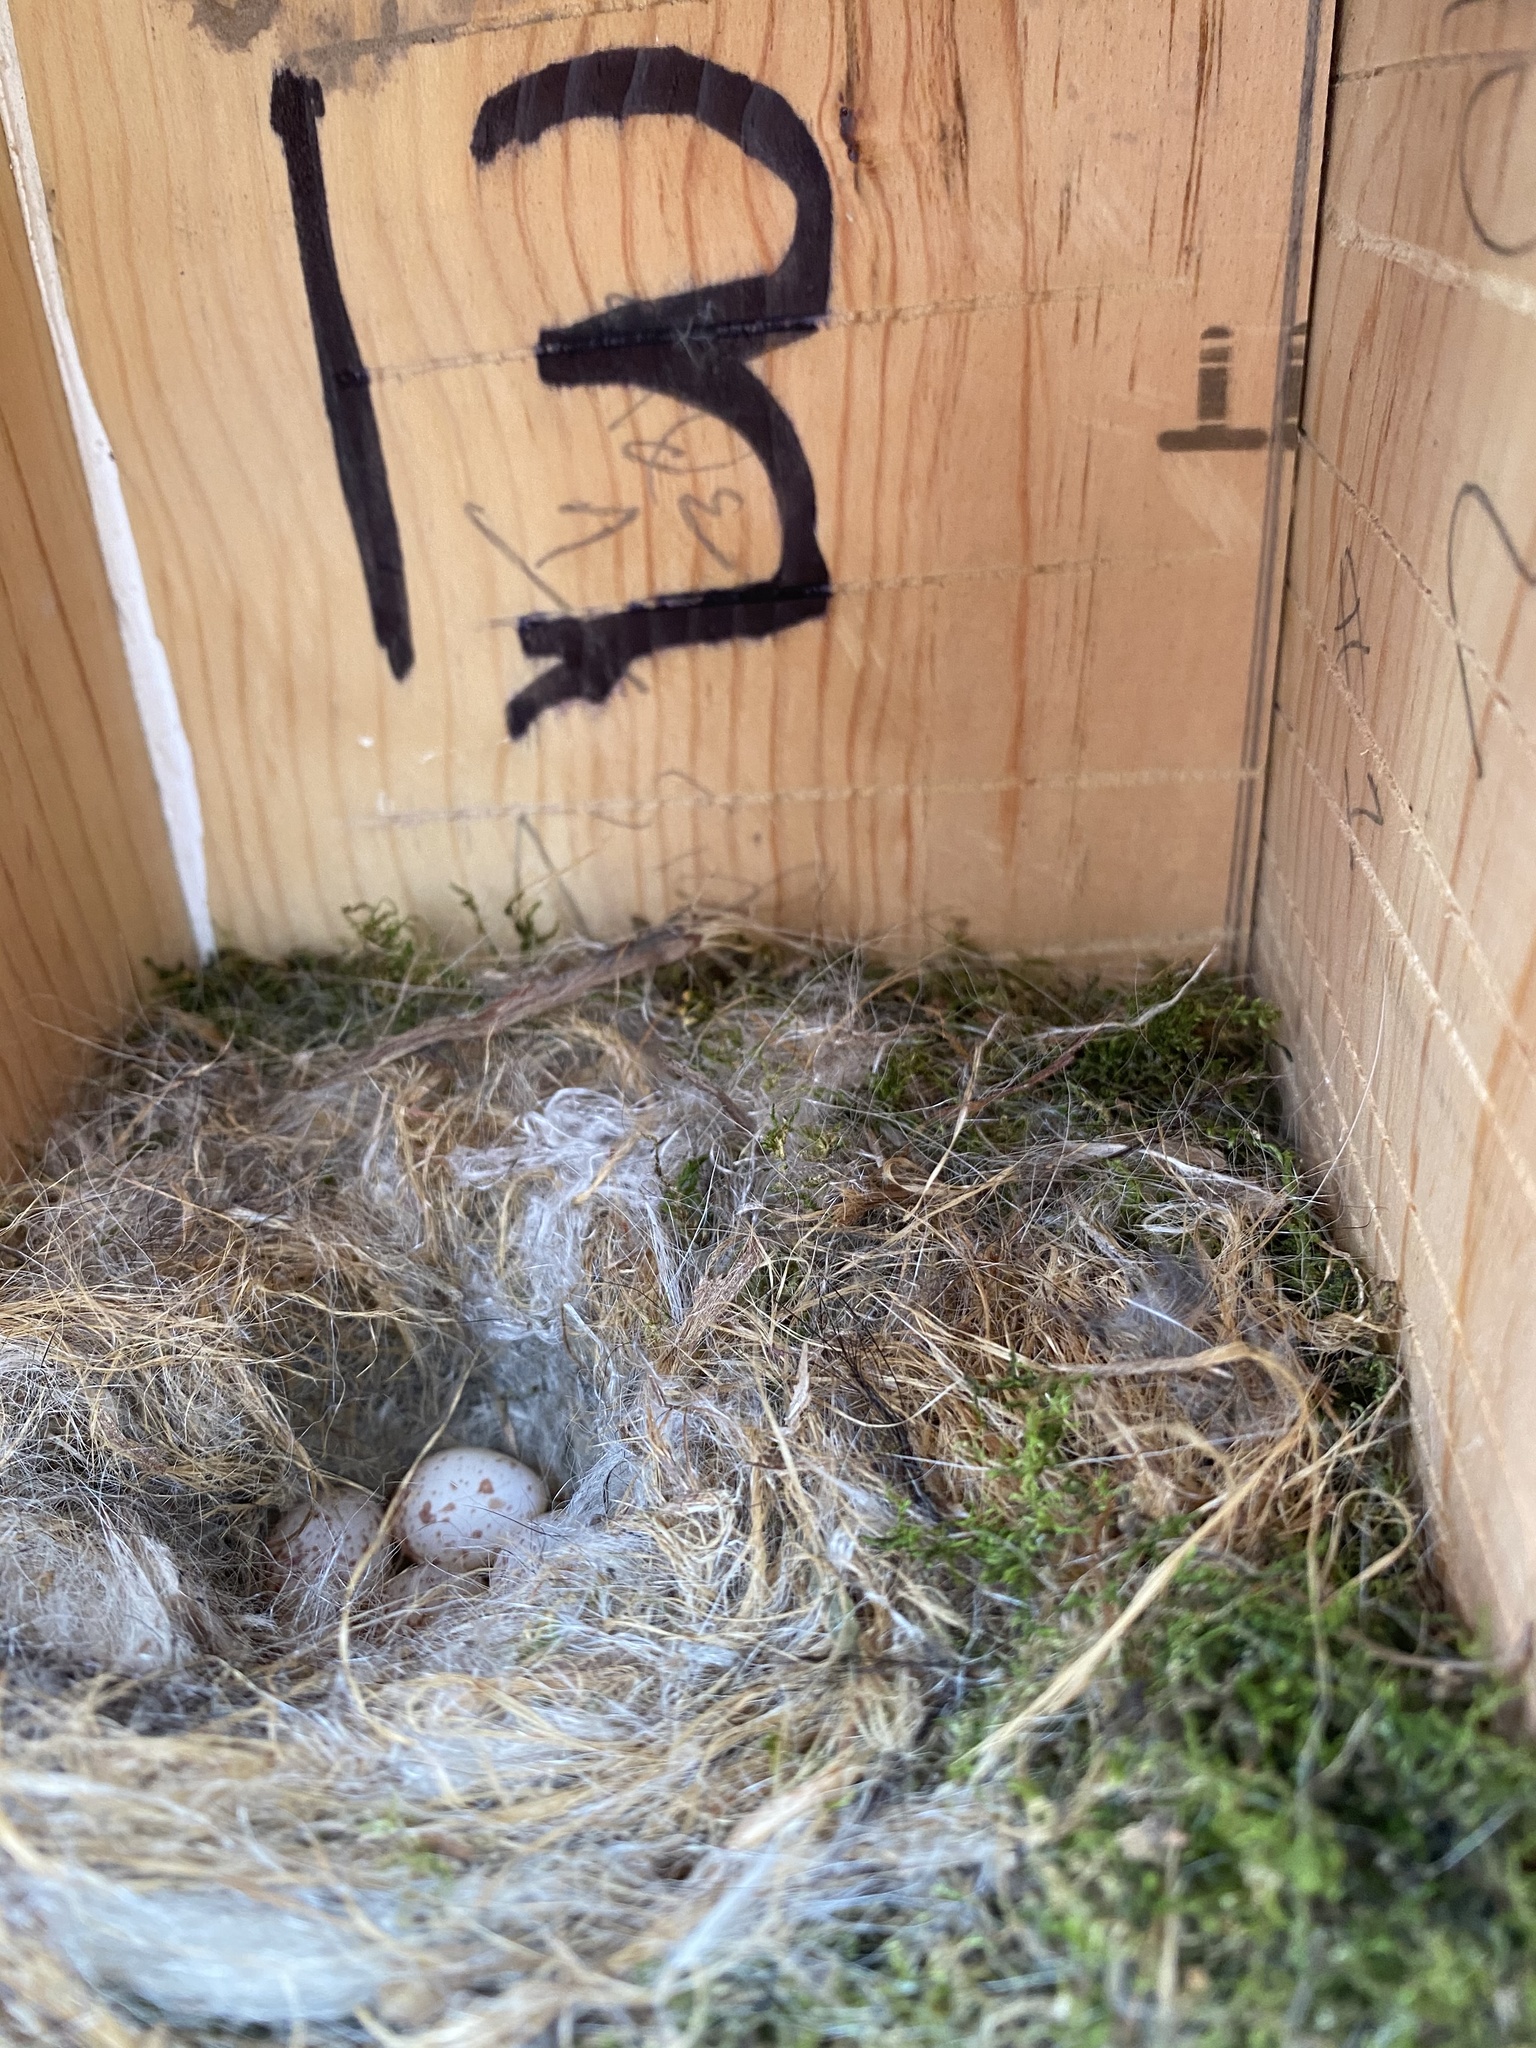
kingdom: Animalia
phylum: Chordata
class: Aves
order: Passeriformes
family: Paridae
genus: Poecile
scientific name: Poecile carolinensis
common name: Carolina chickadee
